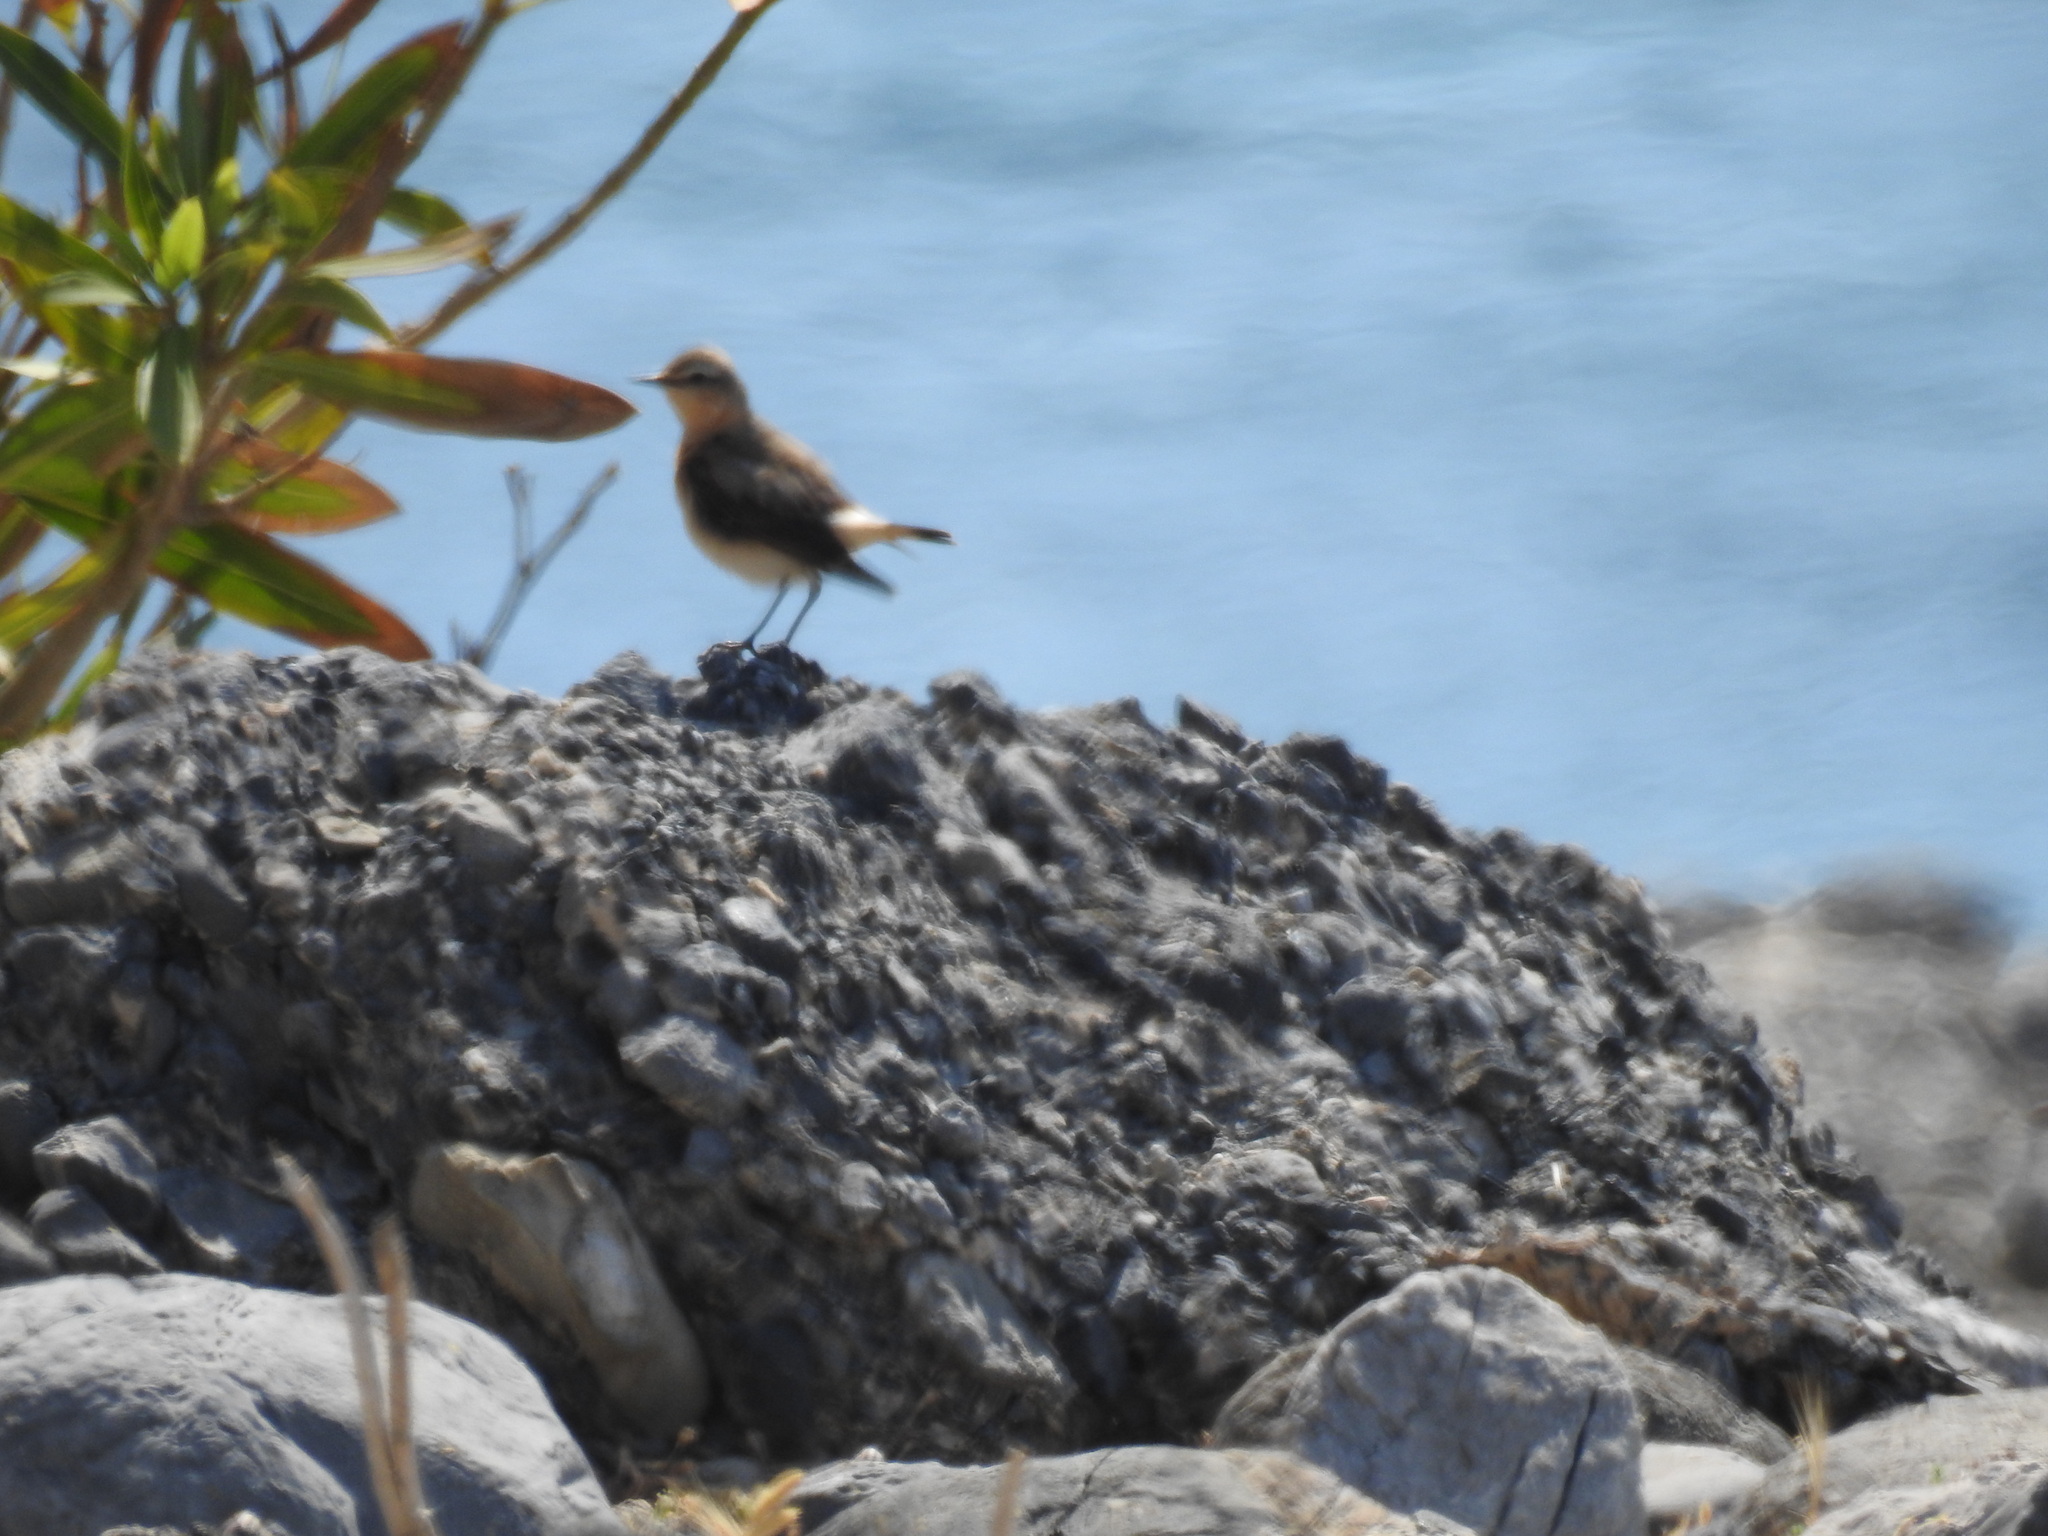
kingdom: Animalia
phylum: Chordata
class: Aves
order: Passeriformes
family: Muscicapidae
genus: Oenanthe
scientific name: Oenanthe oenanthe
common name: Northern wheatear
